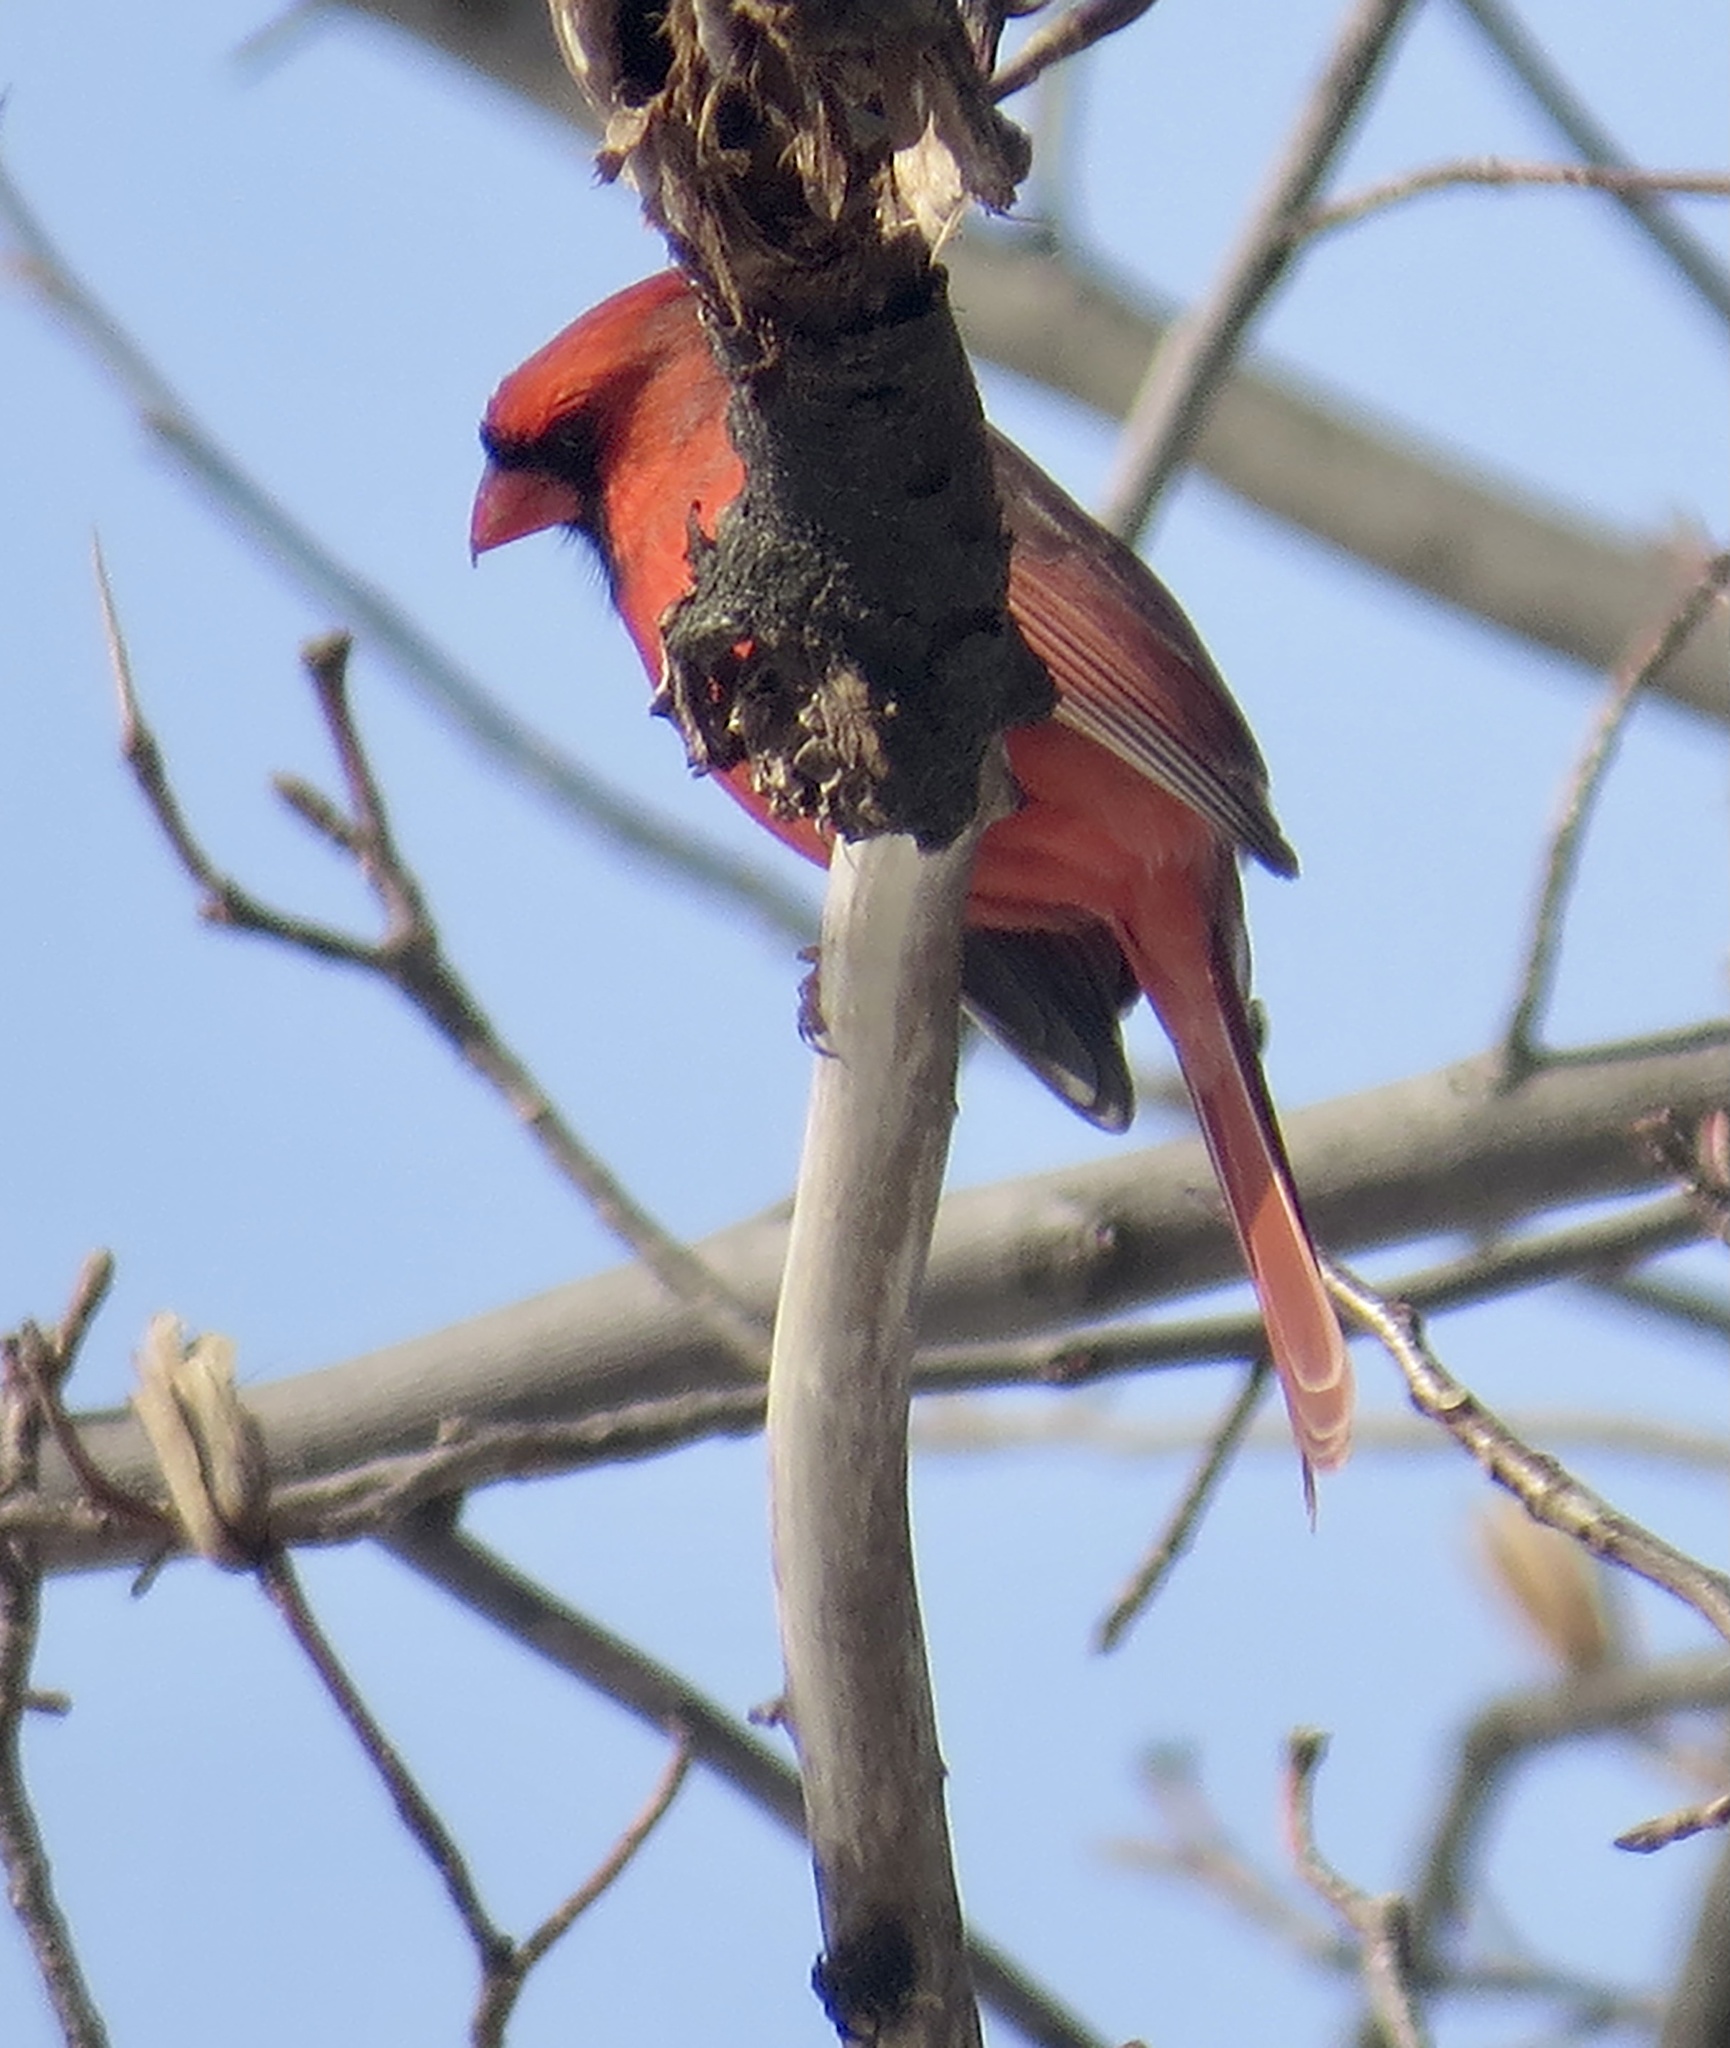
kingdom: Animalia
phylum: Chordata
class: Aves
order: Passeriformes
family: Cardinalidae
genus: Cardinalis
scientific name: Cardinalis cardinalis
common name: Northern cardinal
